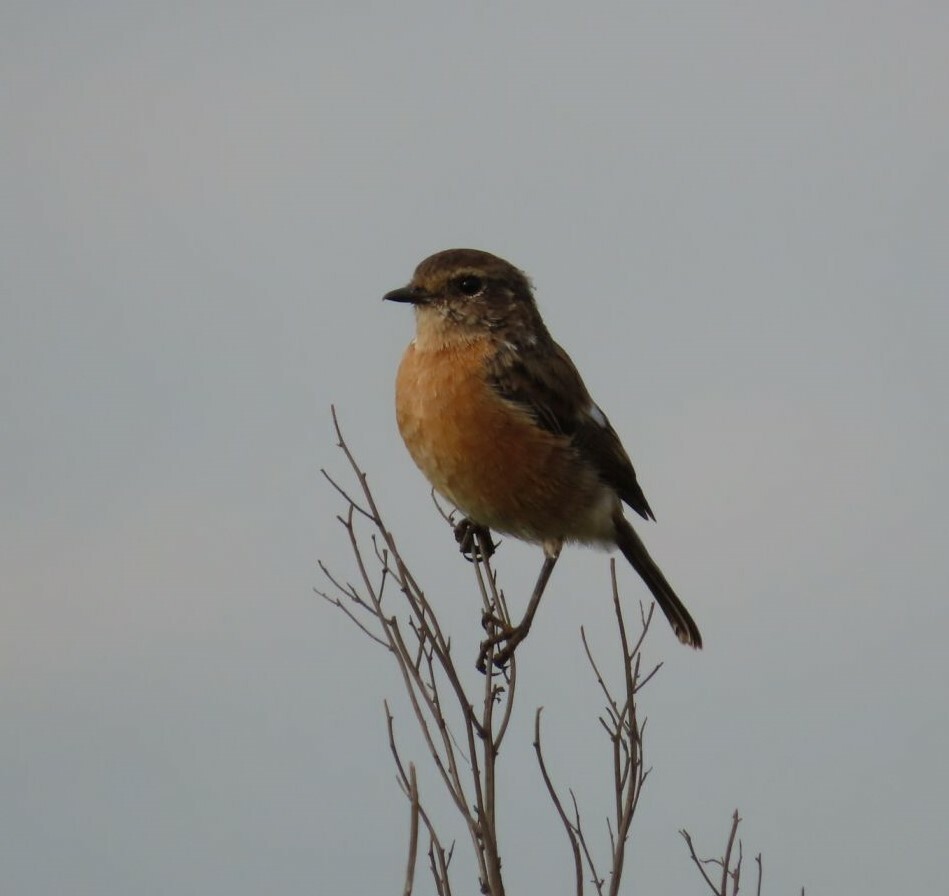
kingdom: Animalia
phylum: Chordata
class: Aves
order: Passeriformes
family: Muscicapidae
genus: Saxicola
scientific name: Saxicola torquatus
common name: African stonechat
